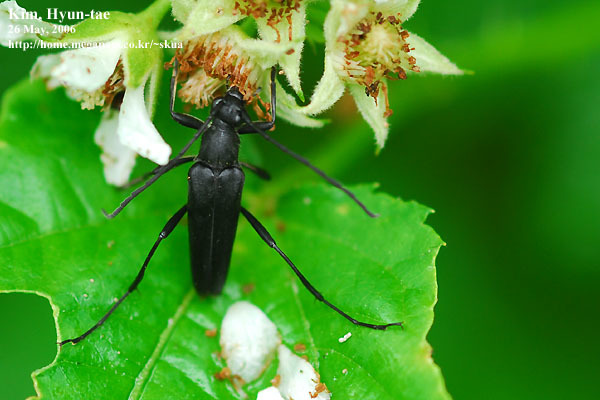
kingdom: Animalia
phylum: Arthropoda
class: Insecta
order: Coleoptera
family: Cerambycidae
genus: Leptura
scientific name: Leptura aethiops
